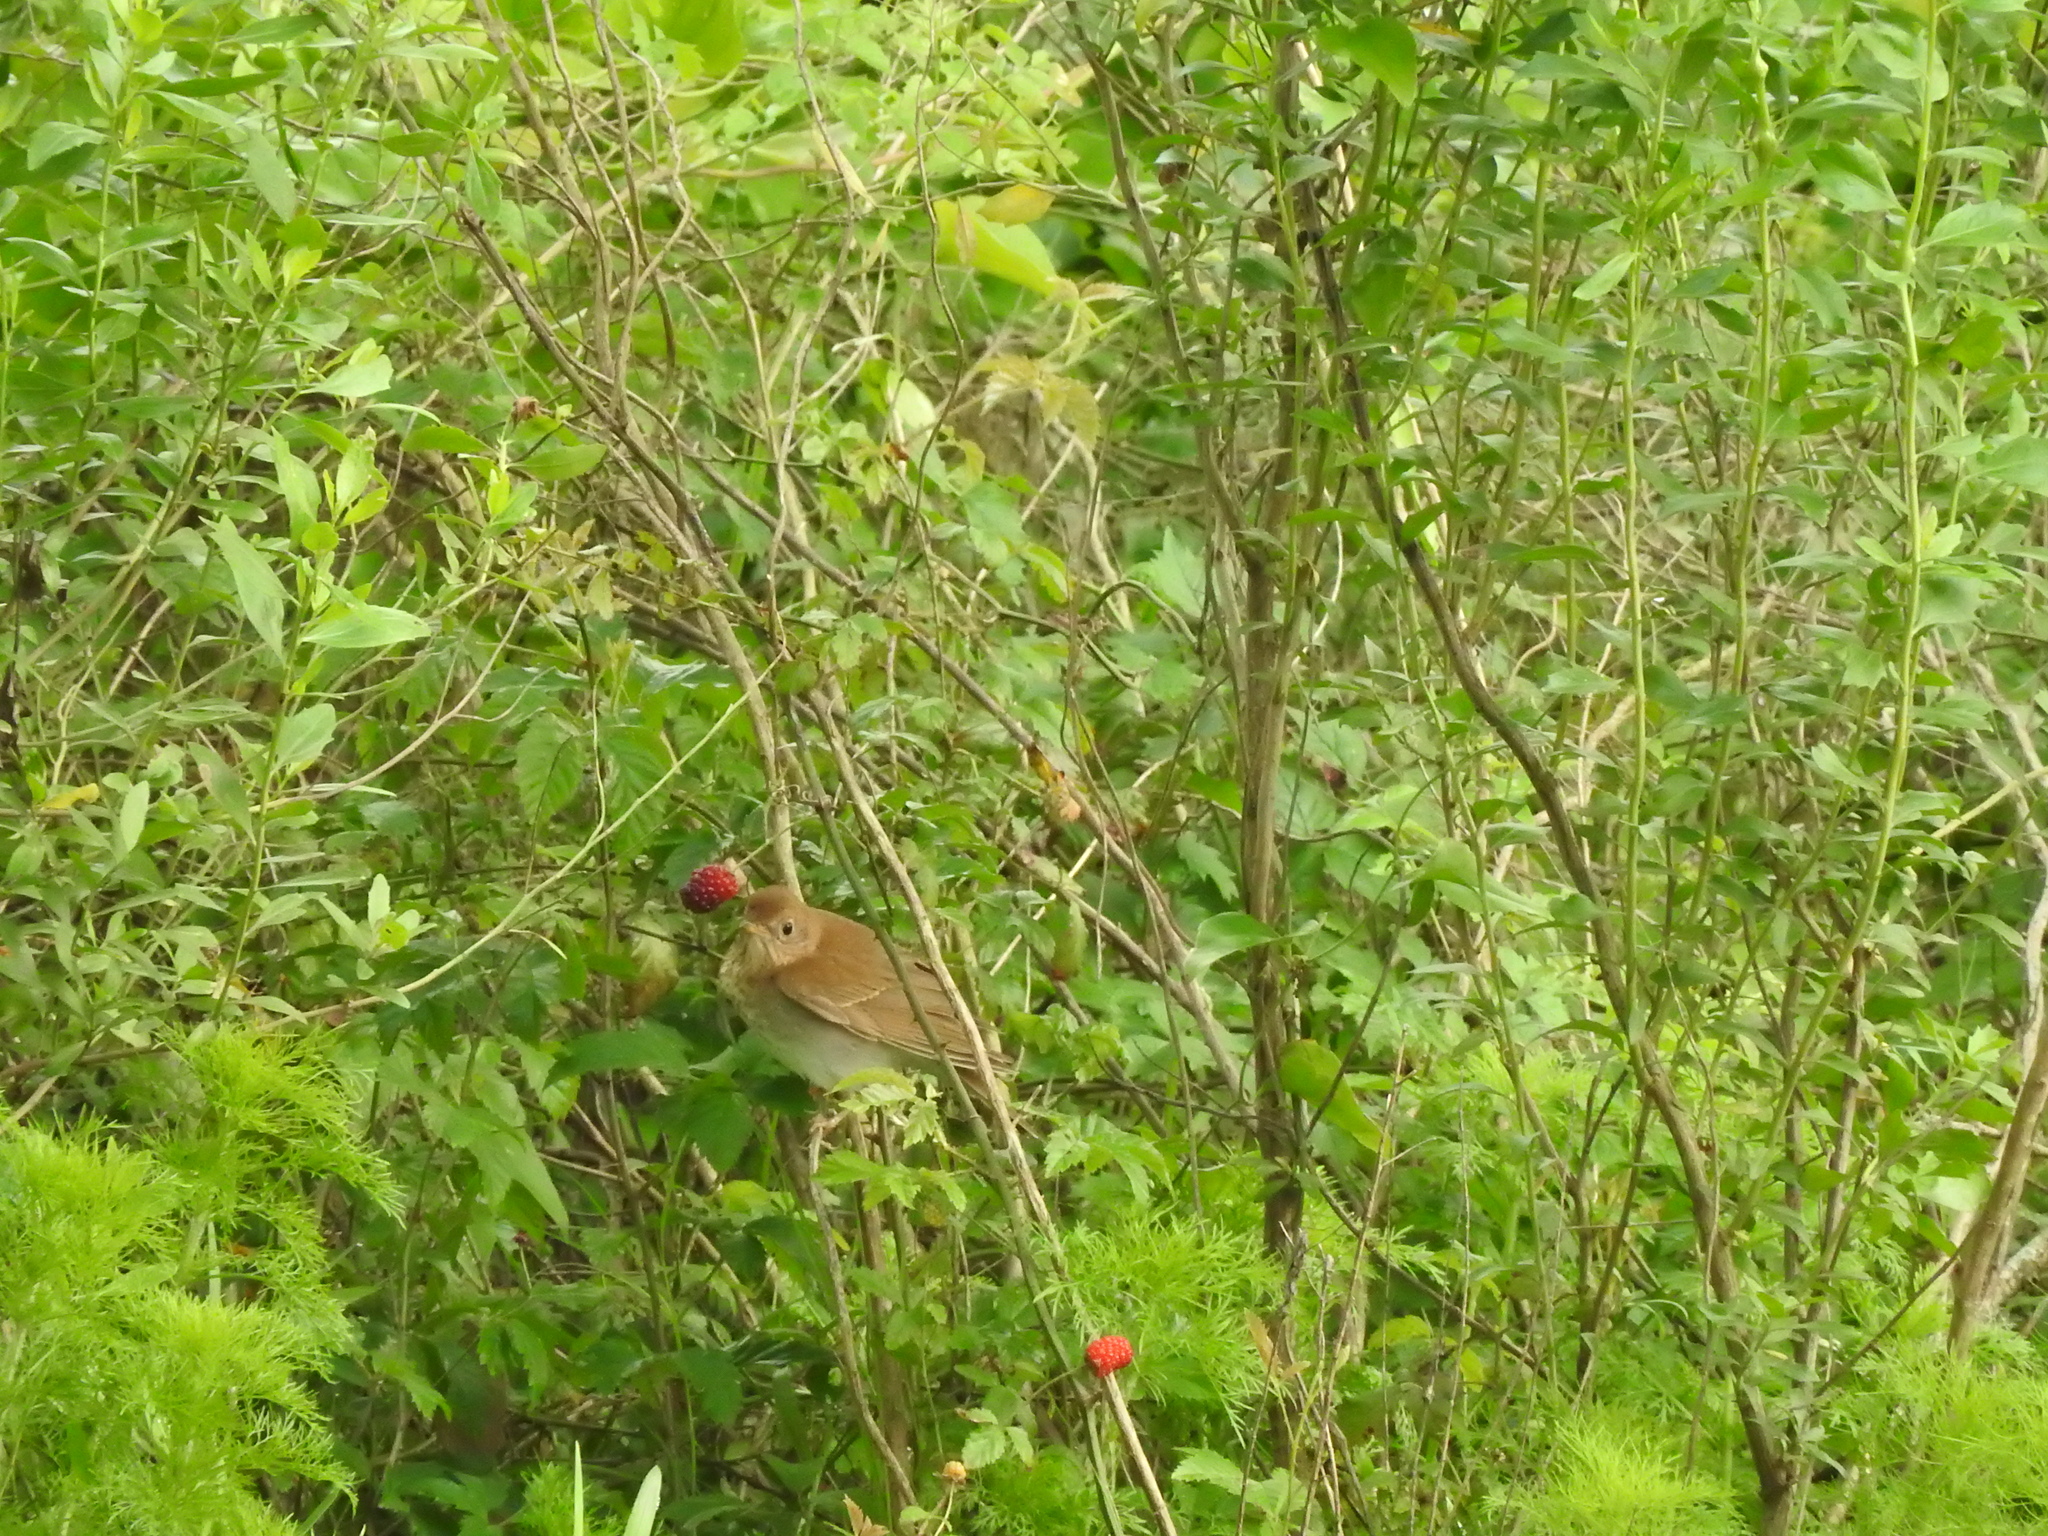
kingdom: Animalia
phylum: Chordata
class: Aves
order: Passeriformes
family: Turdidae
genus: Catharus
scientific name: Catharus fuscescens
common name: Veery
